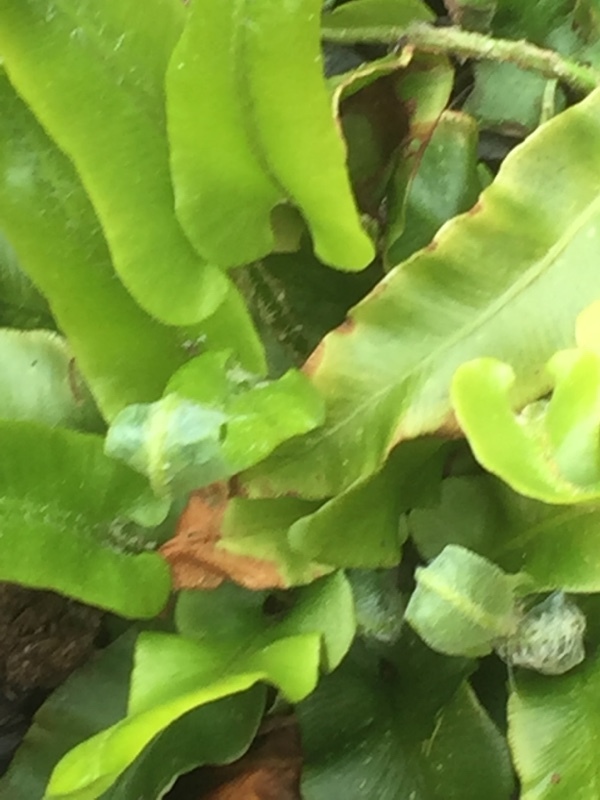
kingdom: Plantae
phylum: Tracheophyta
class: Polypodiopsida
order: Polypodiales
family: Aspleniaceae
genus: Asplenium
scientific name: Asplenium scolopendrium
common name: Hart's-tongue fern
